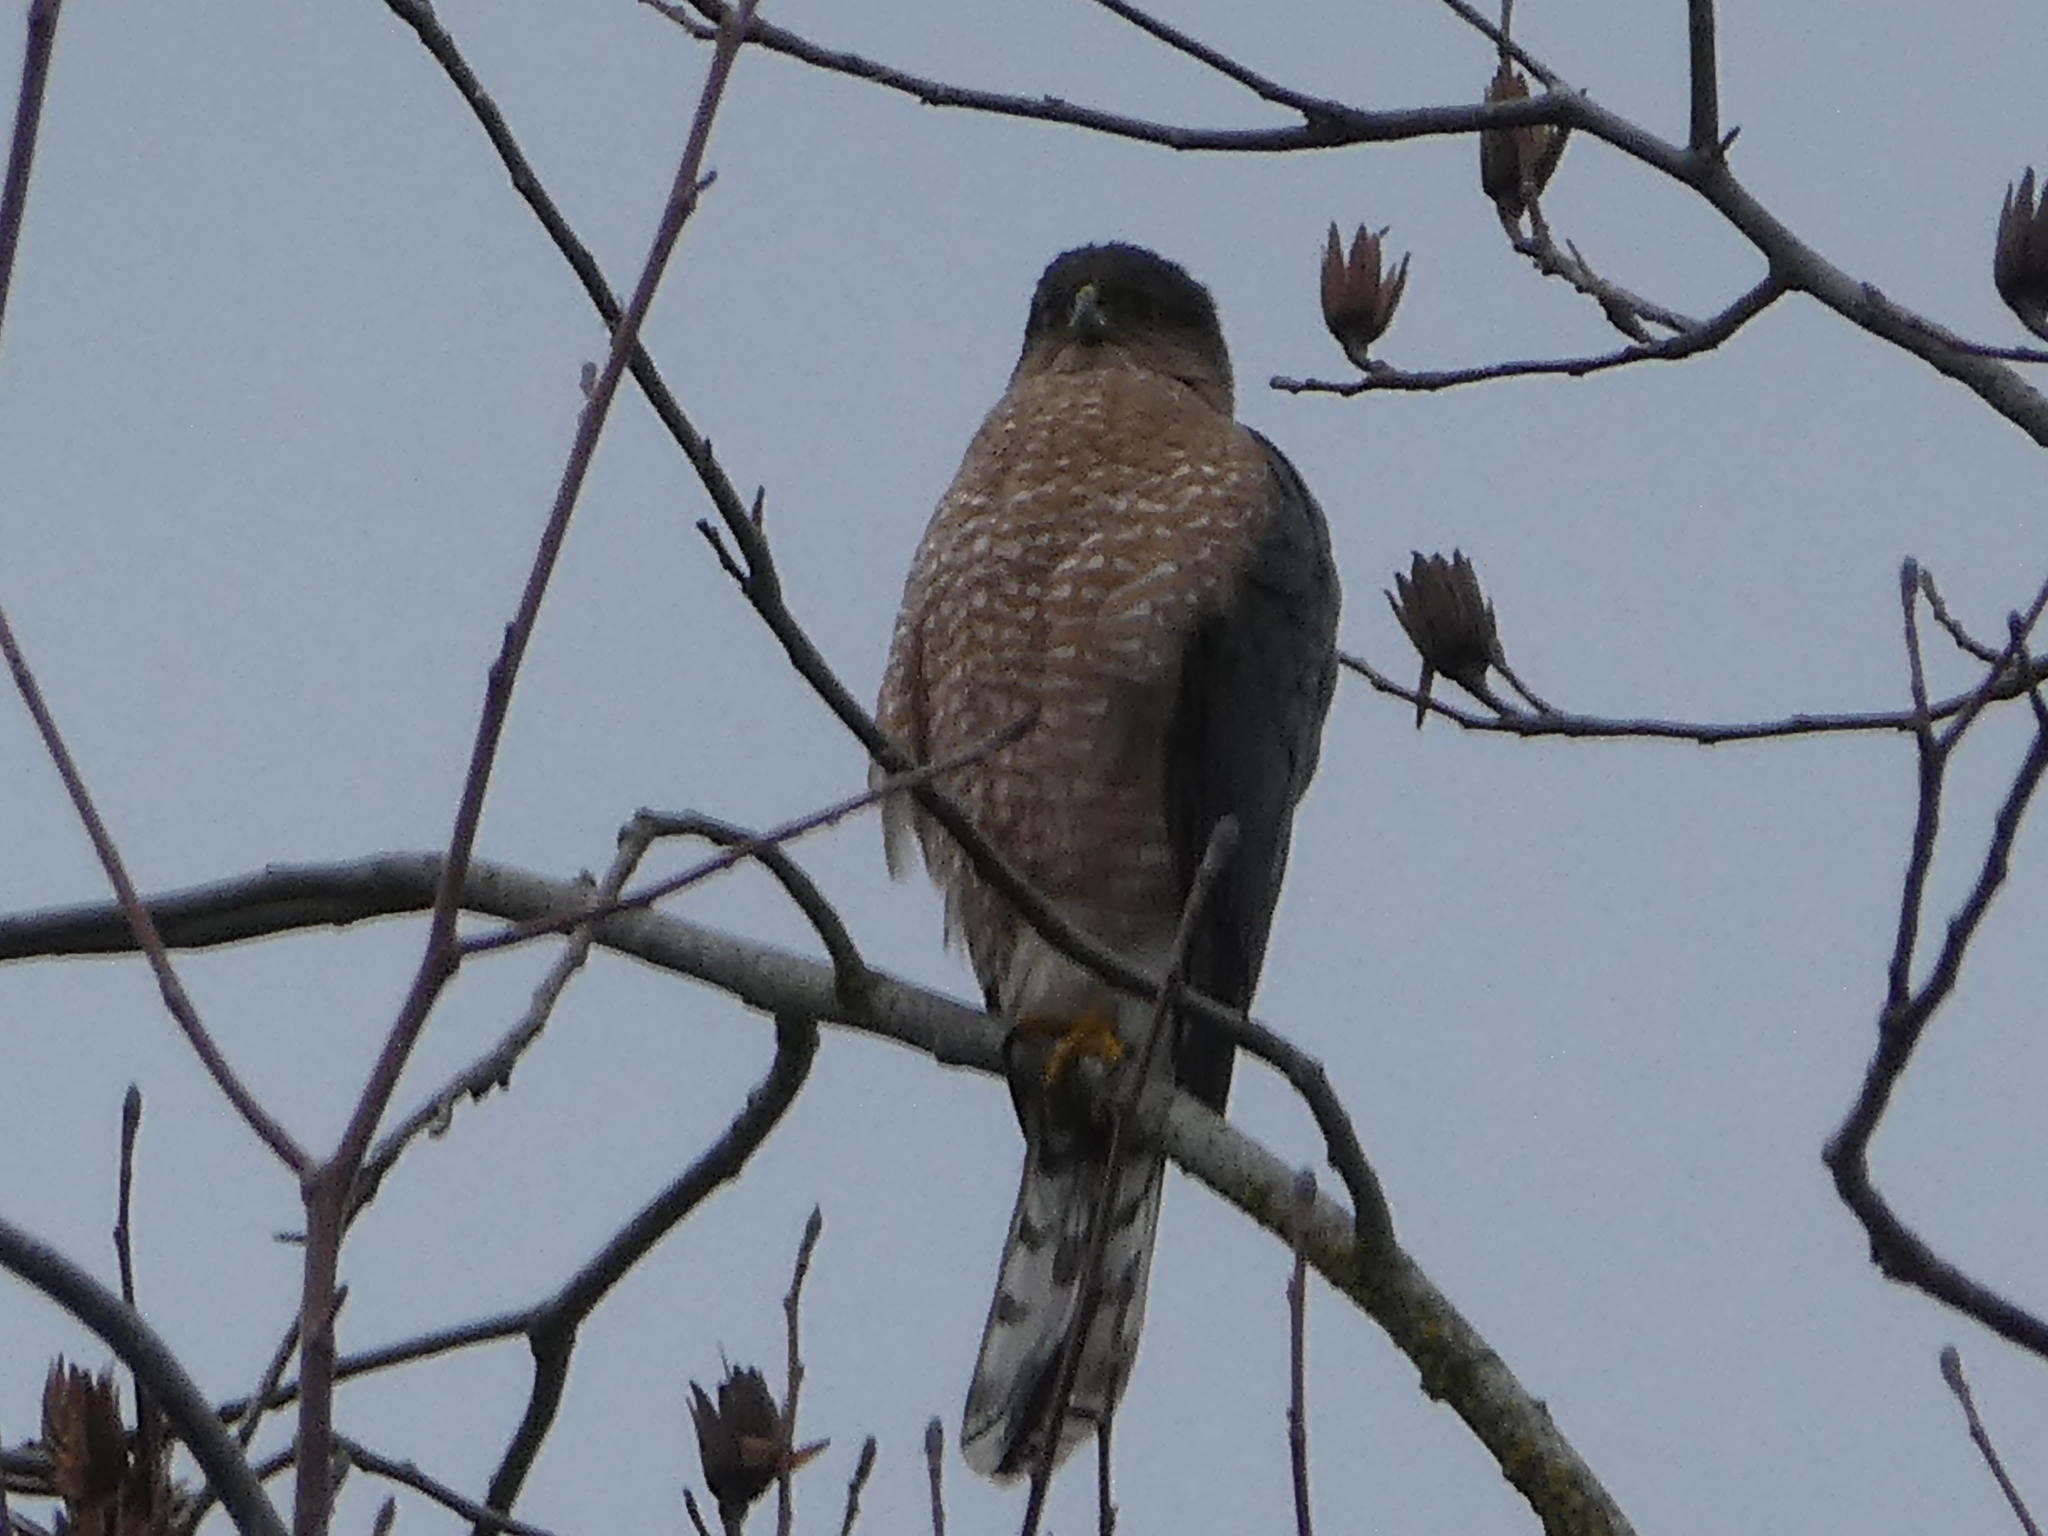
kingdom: Animalia
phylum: Chordata
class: Aves
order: Accipitriformes
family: Accipitridae
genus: Accipiter
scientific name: Accipiter cooperii
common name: Cooper's hawk
